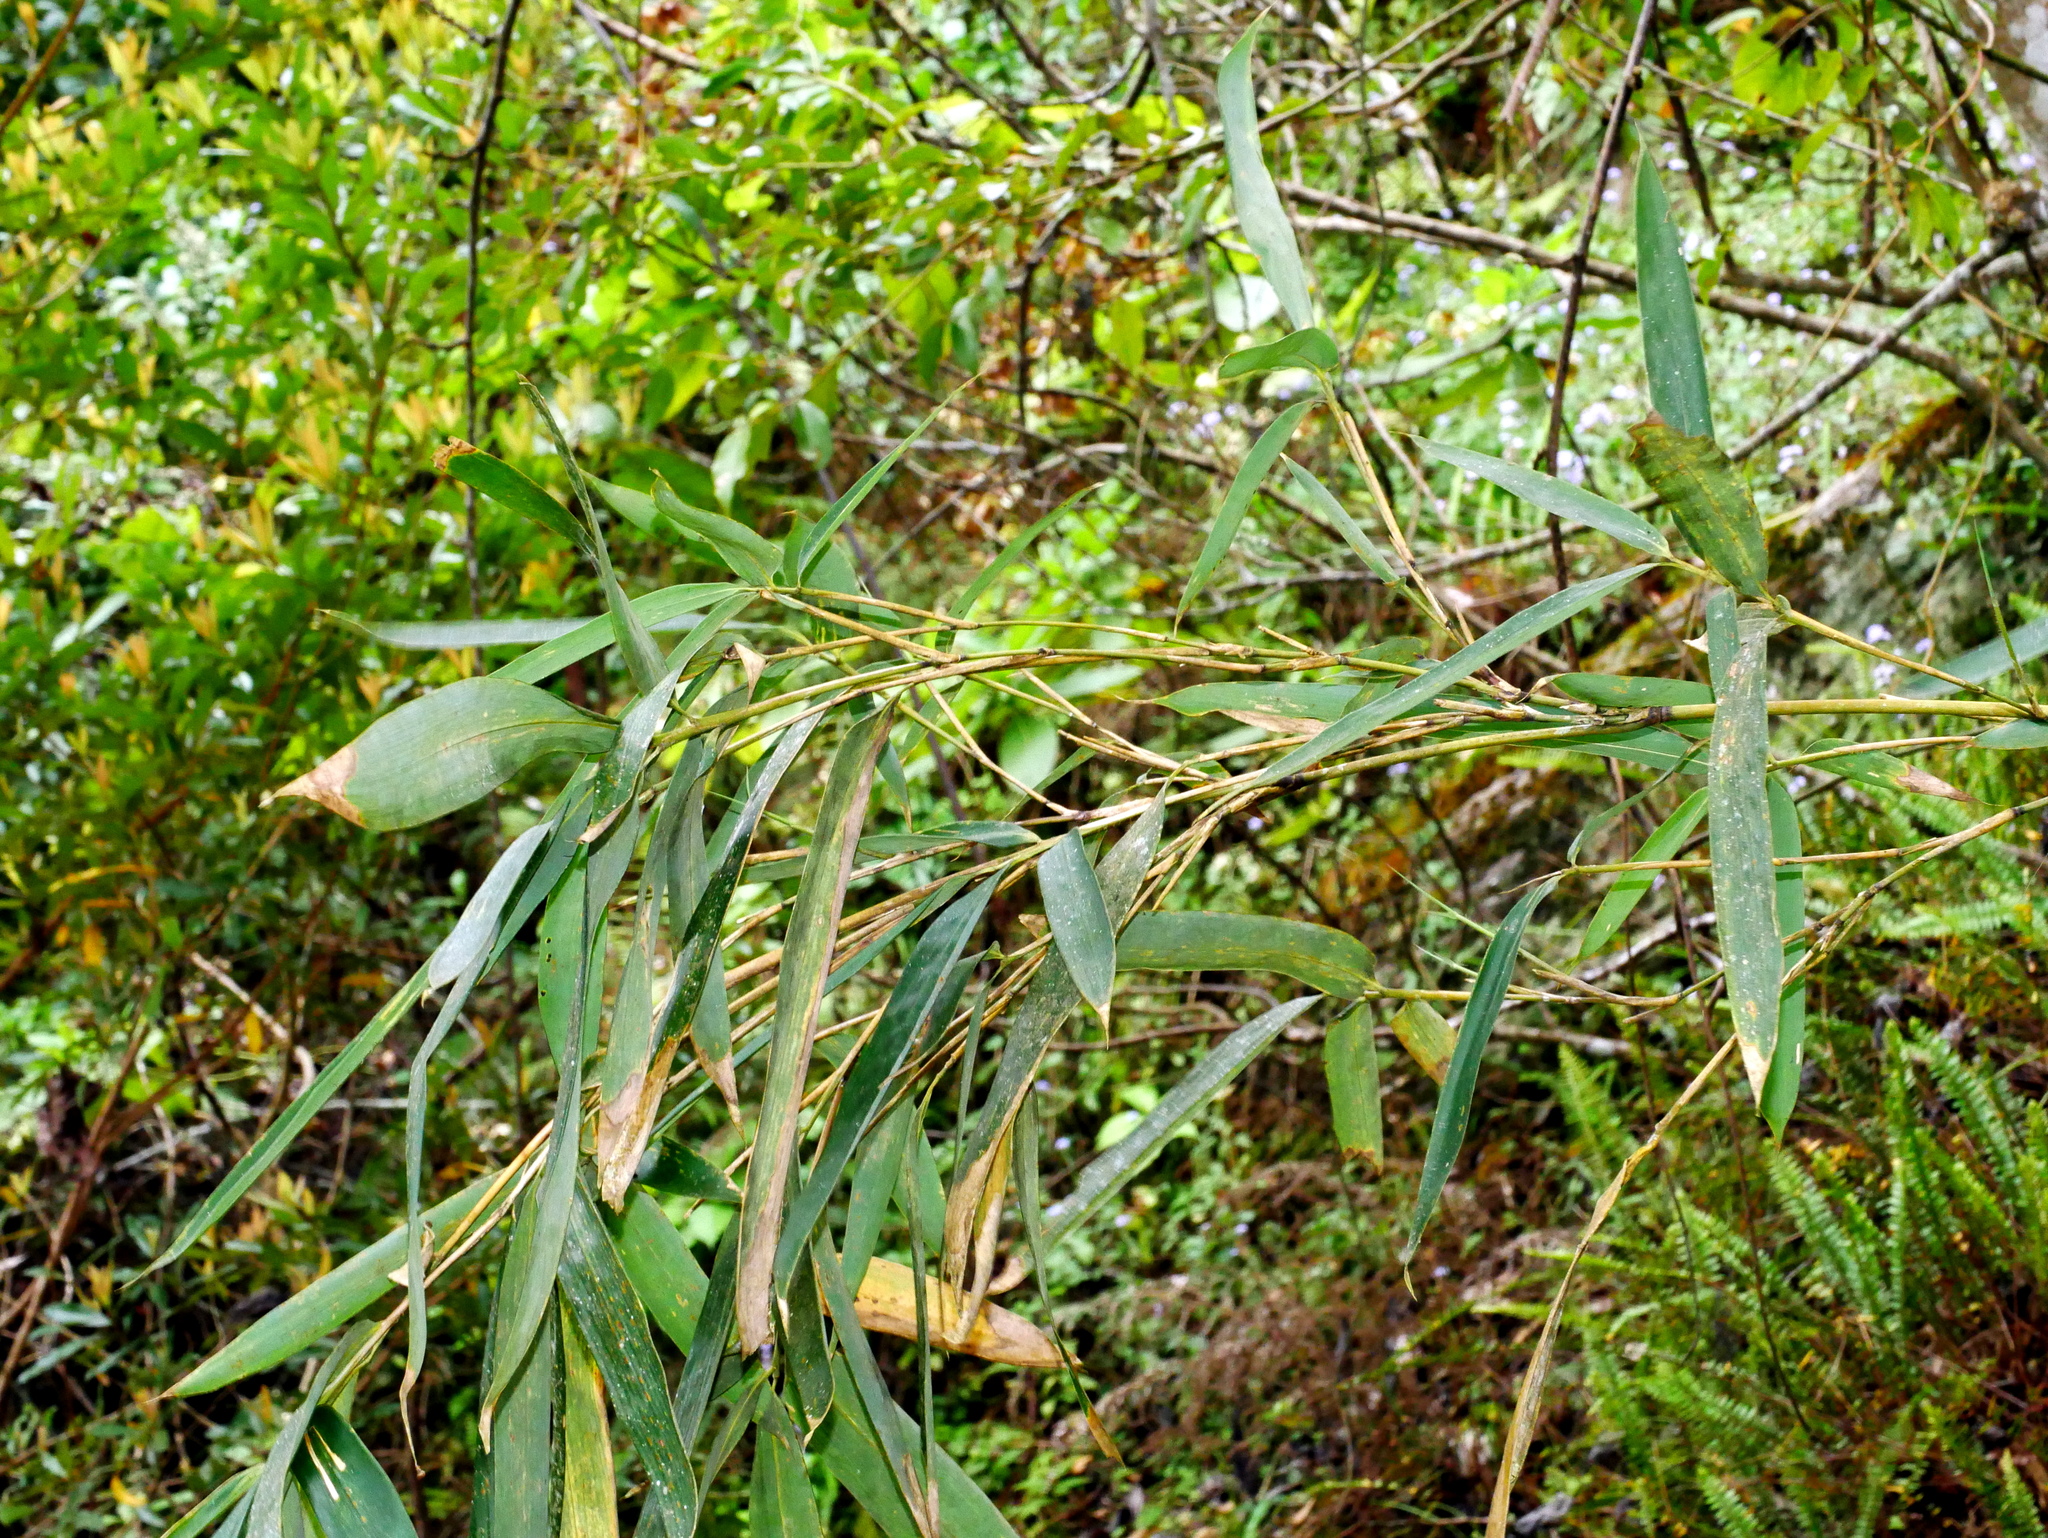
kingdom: Plantae
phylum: Tracheophyta
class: Liliopsida
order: Poales
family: Poaceae
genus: Yushania
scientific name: Yushania niitakayamensis
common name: Yushan cane
